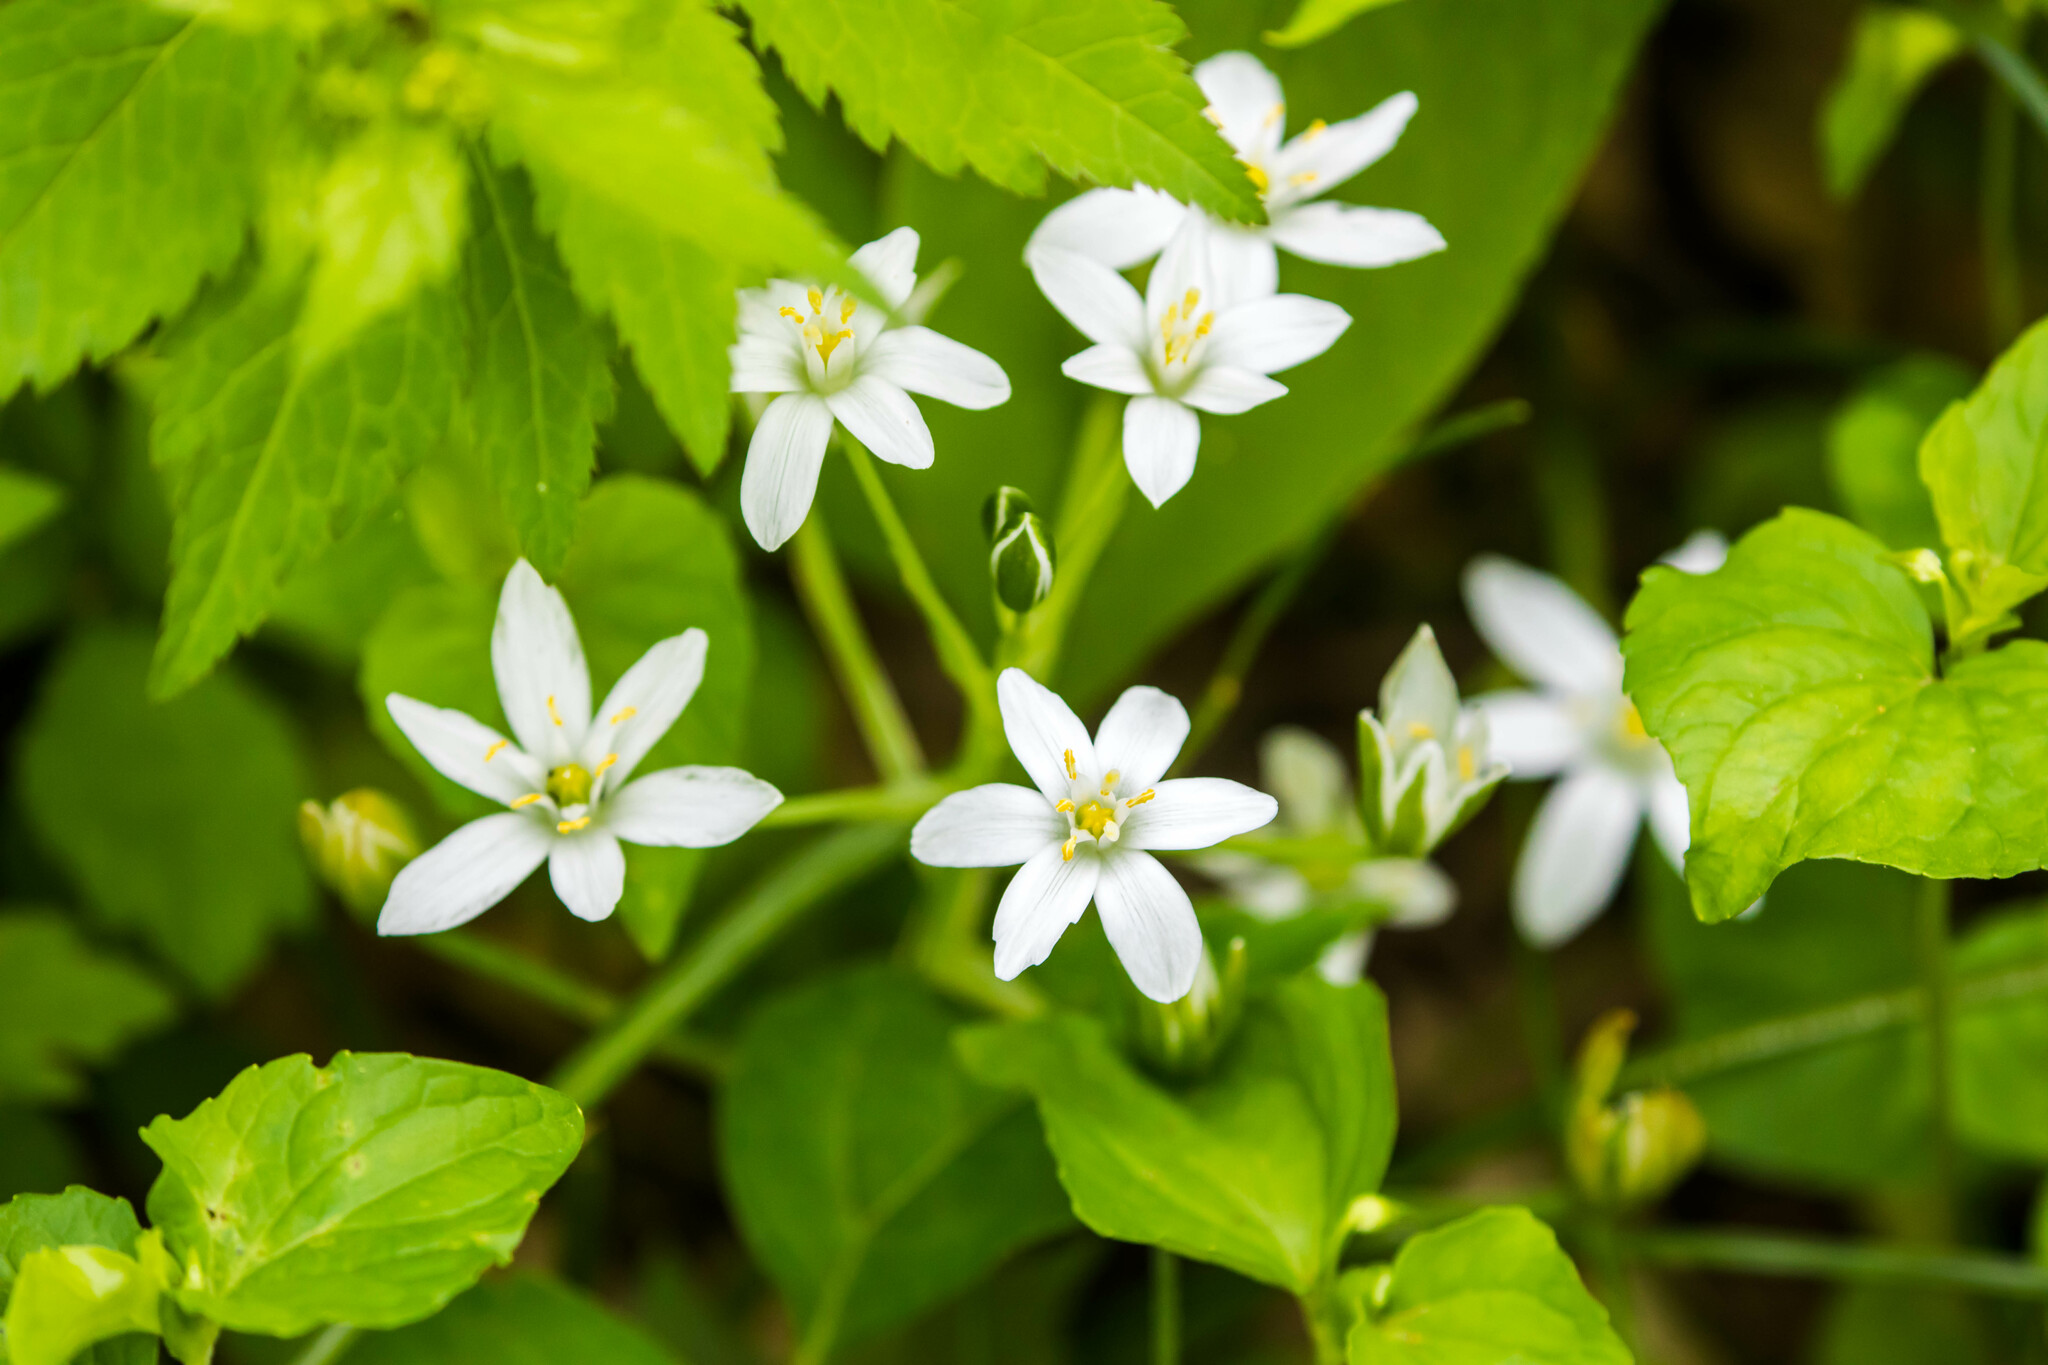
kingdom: Plantae
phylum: Tracheophyta
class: Liliopsida
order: Asparagales
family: Asparagaceae
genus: Ornithogalum
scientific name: Ornithogalum umbellatum
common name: Garden star-of-bethlehem
